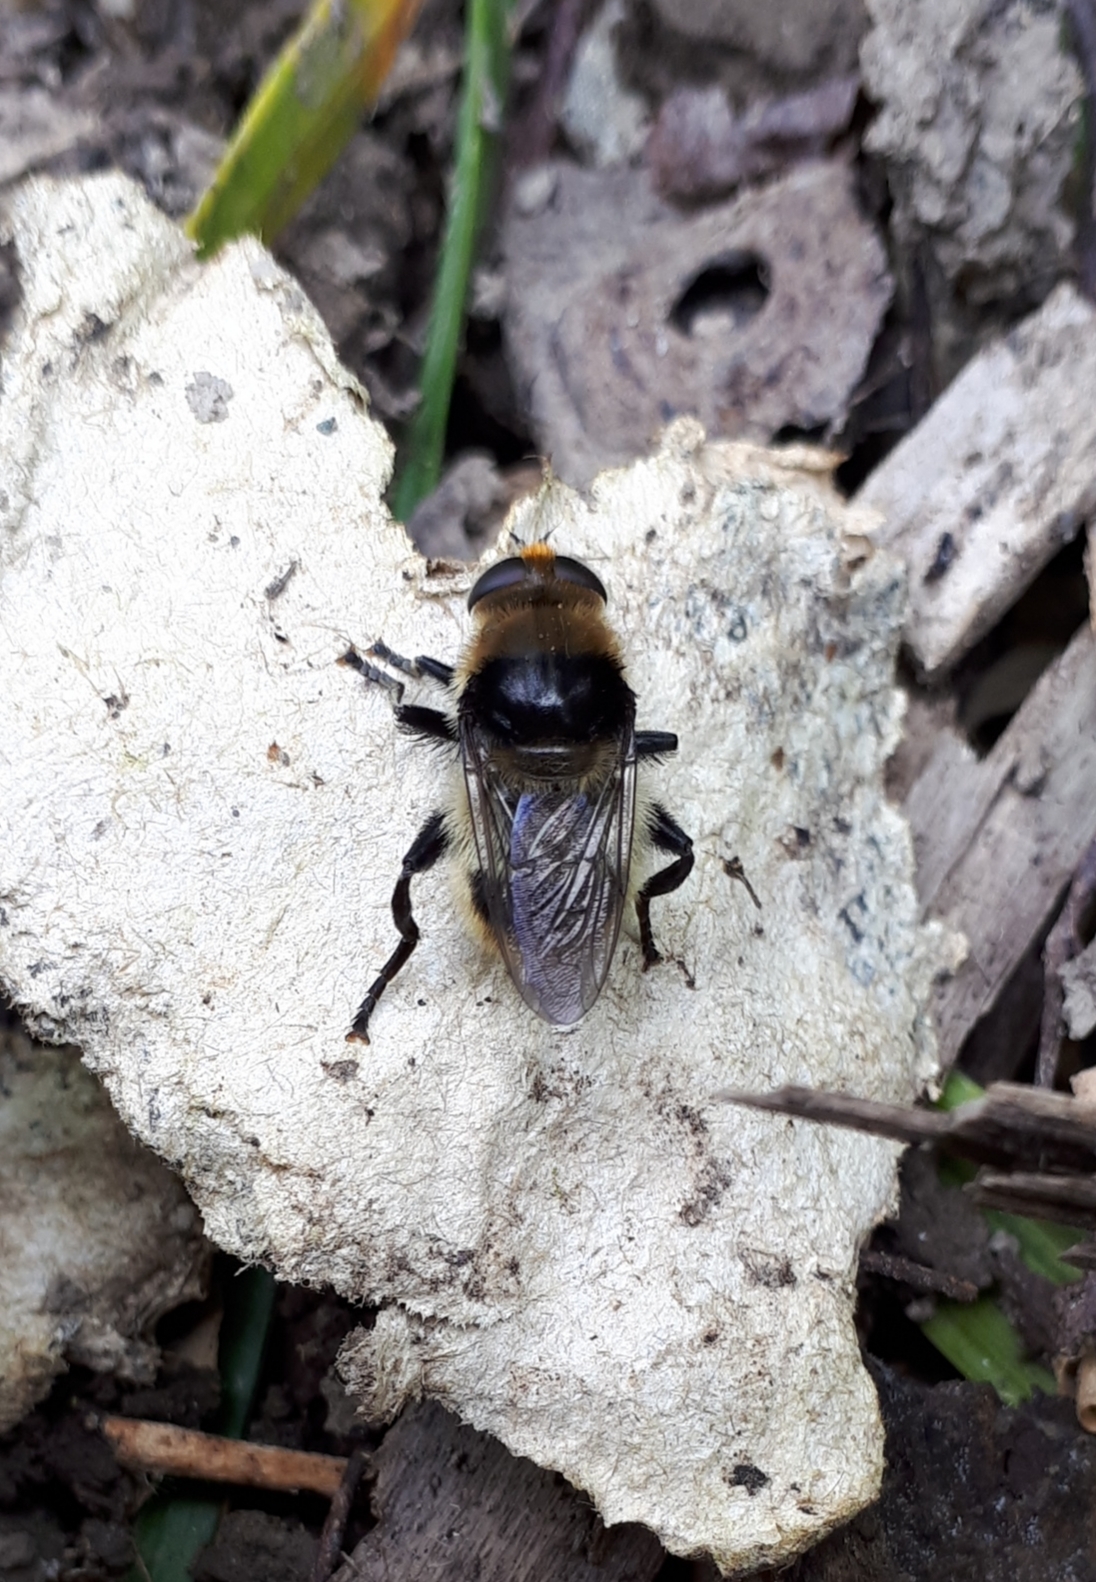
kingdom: Animalia
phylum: Arthropoda
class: Insecta
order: Diptera
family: Syrphidae
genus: Merodon
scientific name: Merodon equestris
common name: Greater bulb-fly
